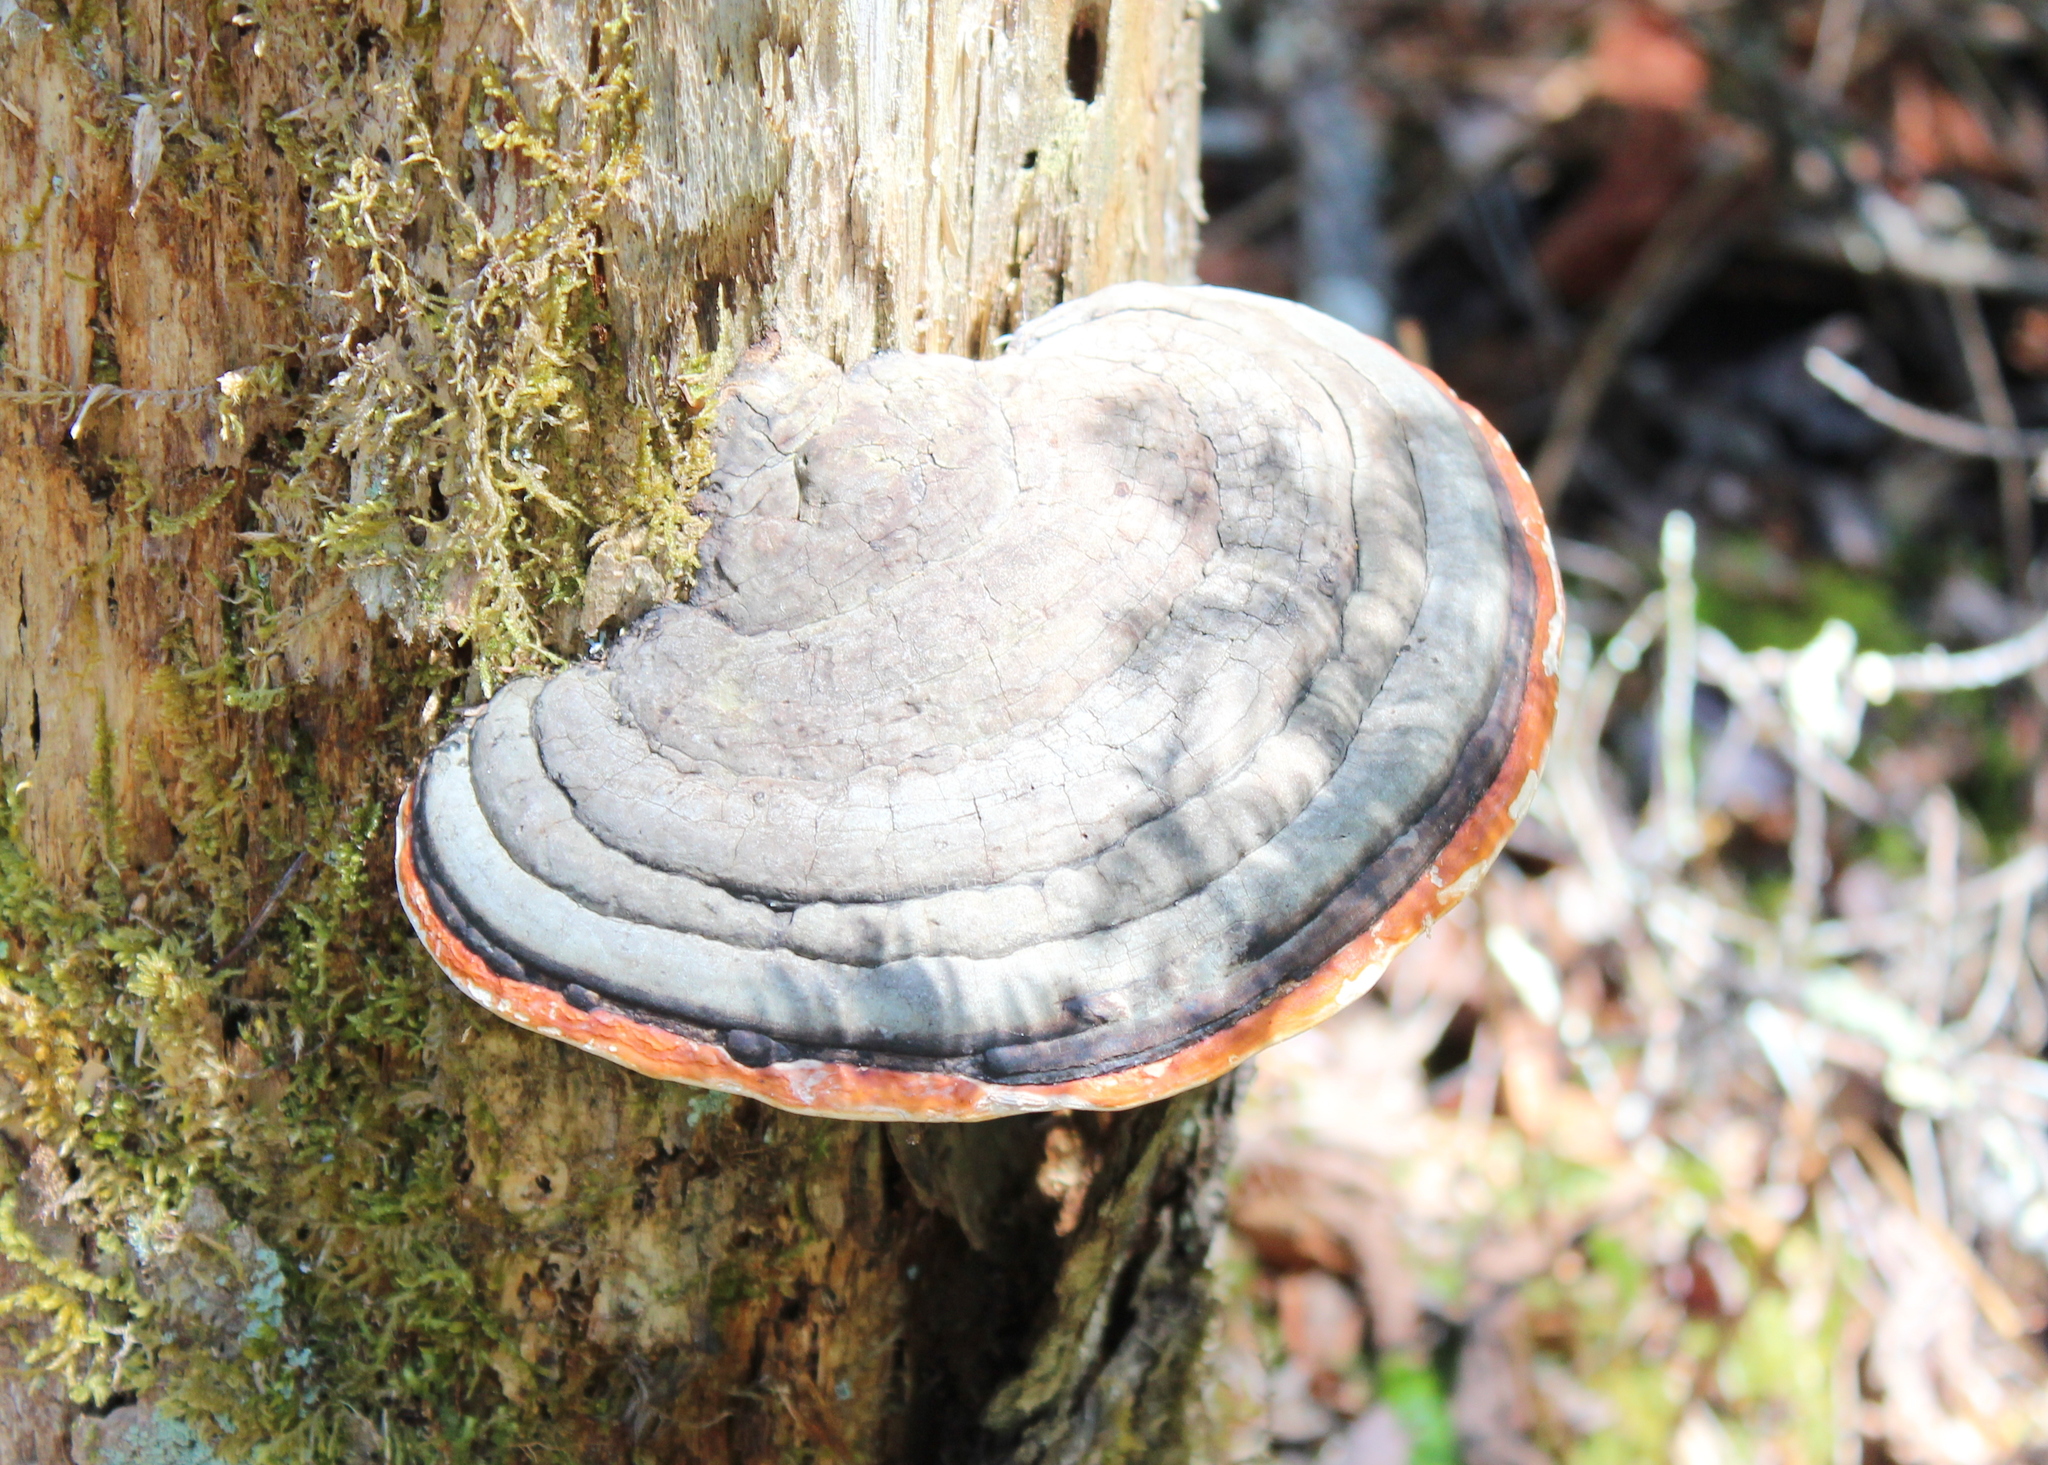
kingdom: Fungi
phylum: Basidiomycota
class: Agaricomycetes
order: Polyporales
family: Fomitopsidaceae
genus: Fomitopsis
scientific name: Fomitopsis mounceae
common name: Northern red belt
